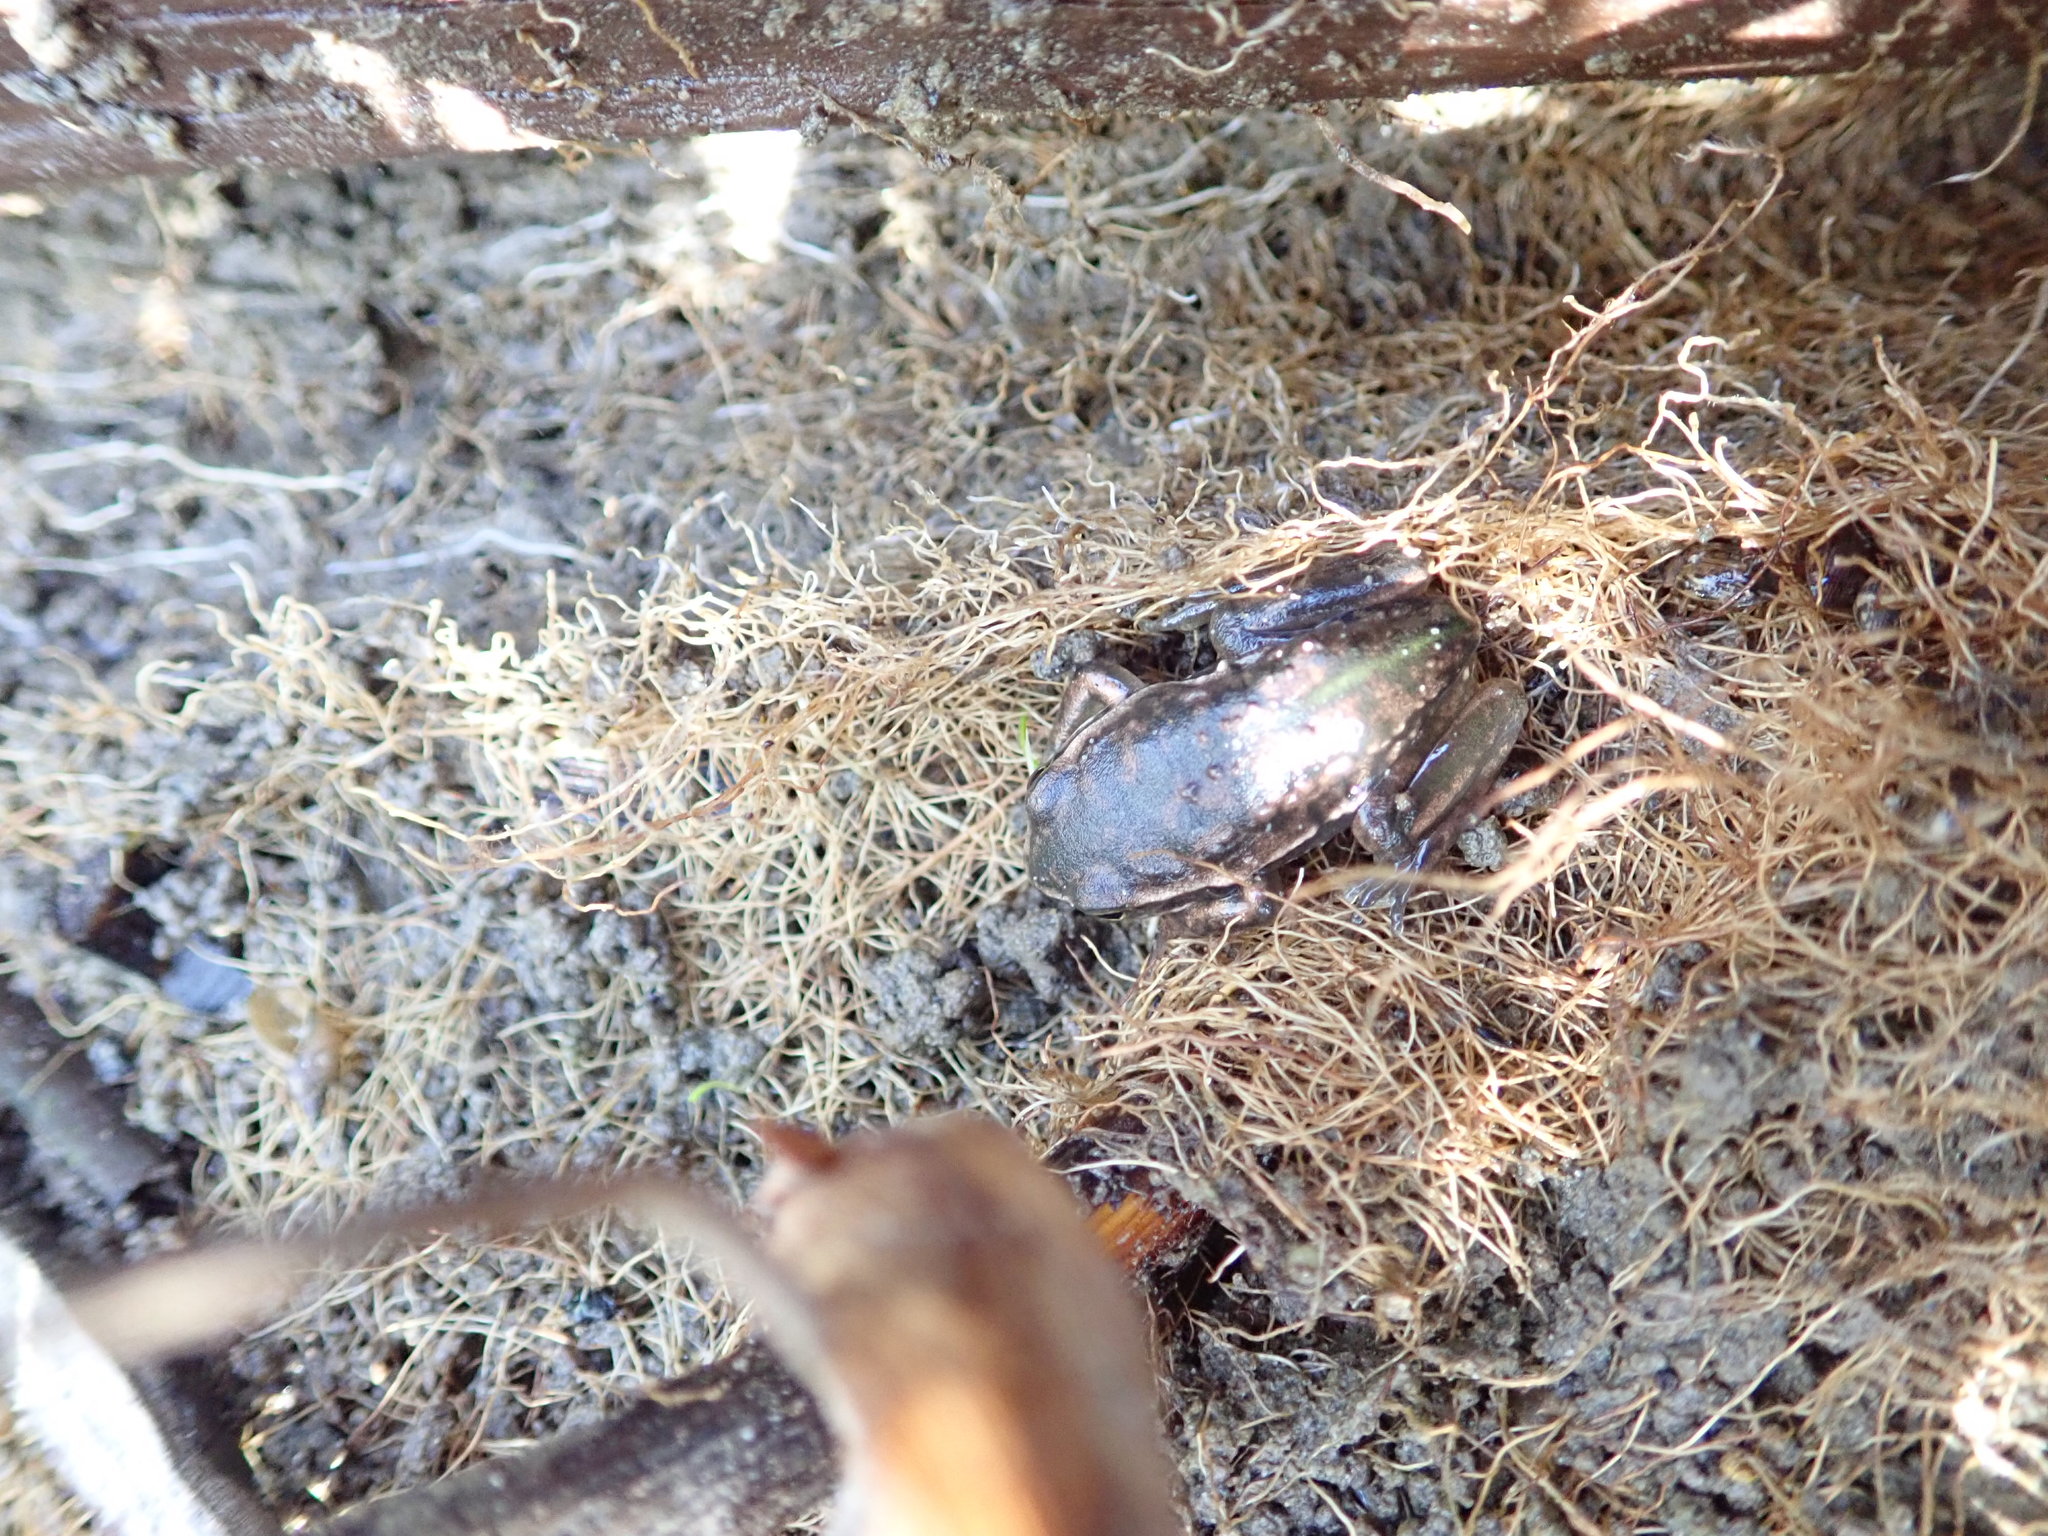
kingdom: Animalia
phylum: Chordata
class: Amphibia
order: Anura
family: Pelodryadidae
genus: Ranoidea
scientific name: Ranoidea raniformis
